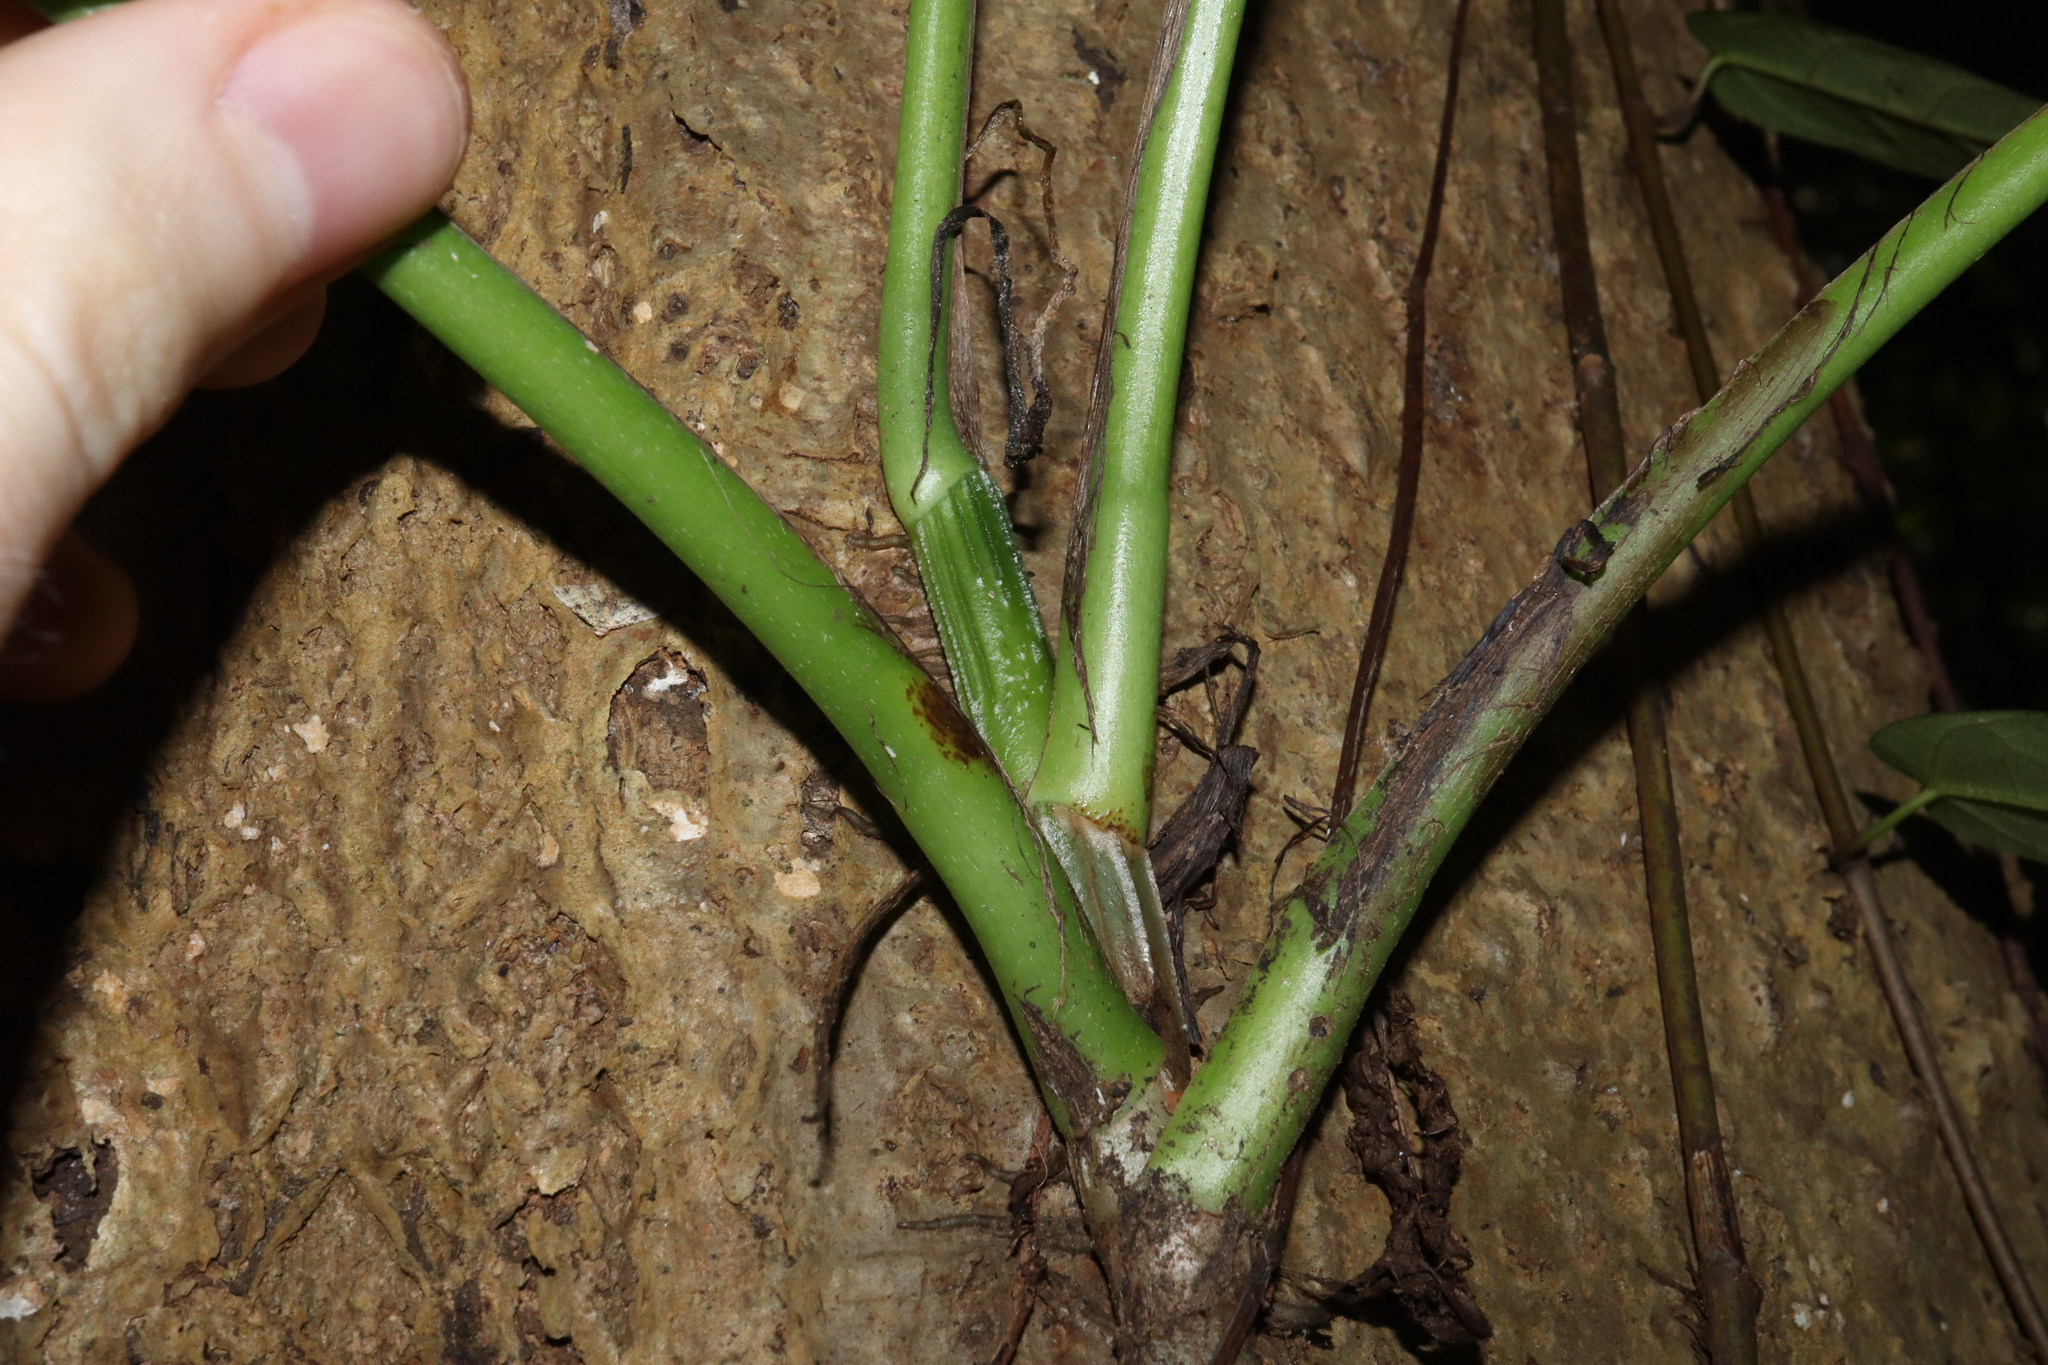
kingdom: Plantae
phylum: Tracheophyta
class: Liliopsida
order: Alismatales
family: Araceae
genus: Epipremnum
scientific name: Epipremnum pinnatum
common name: Centipede tongavine
